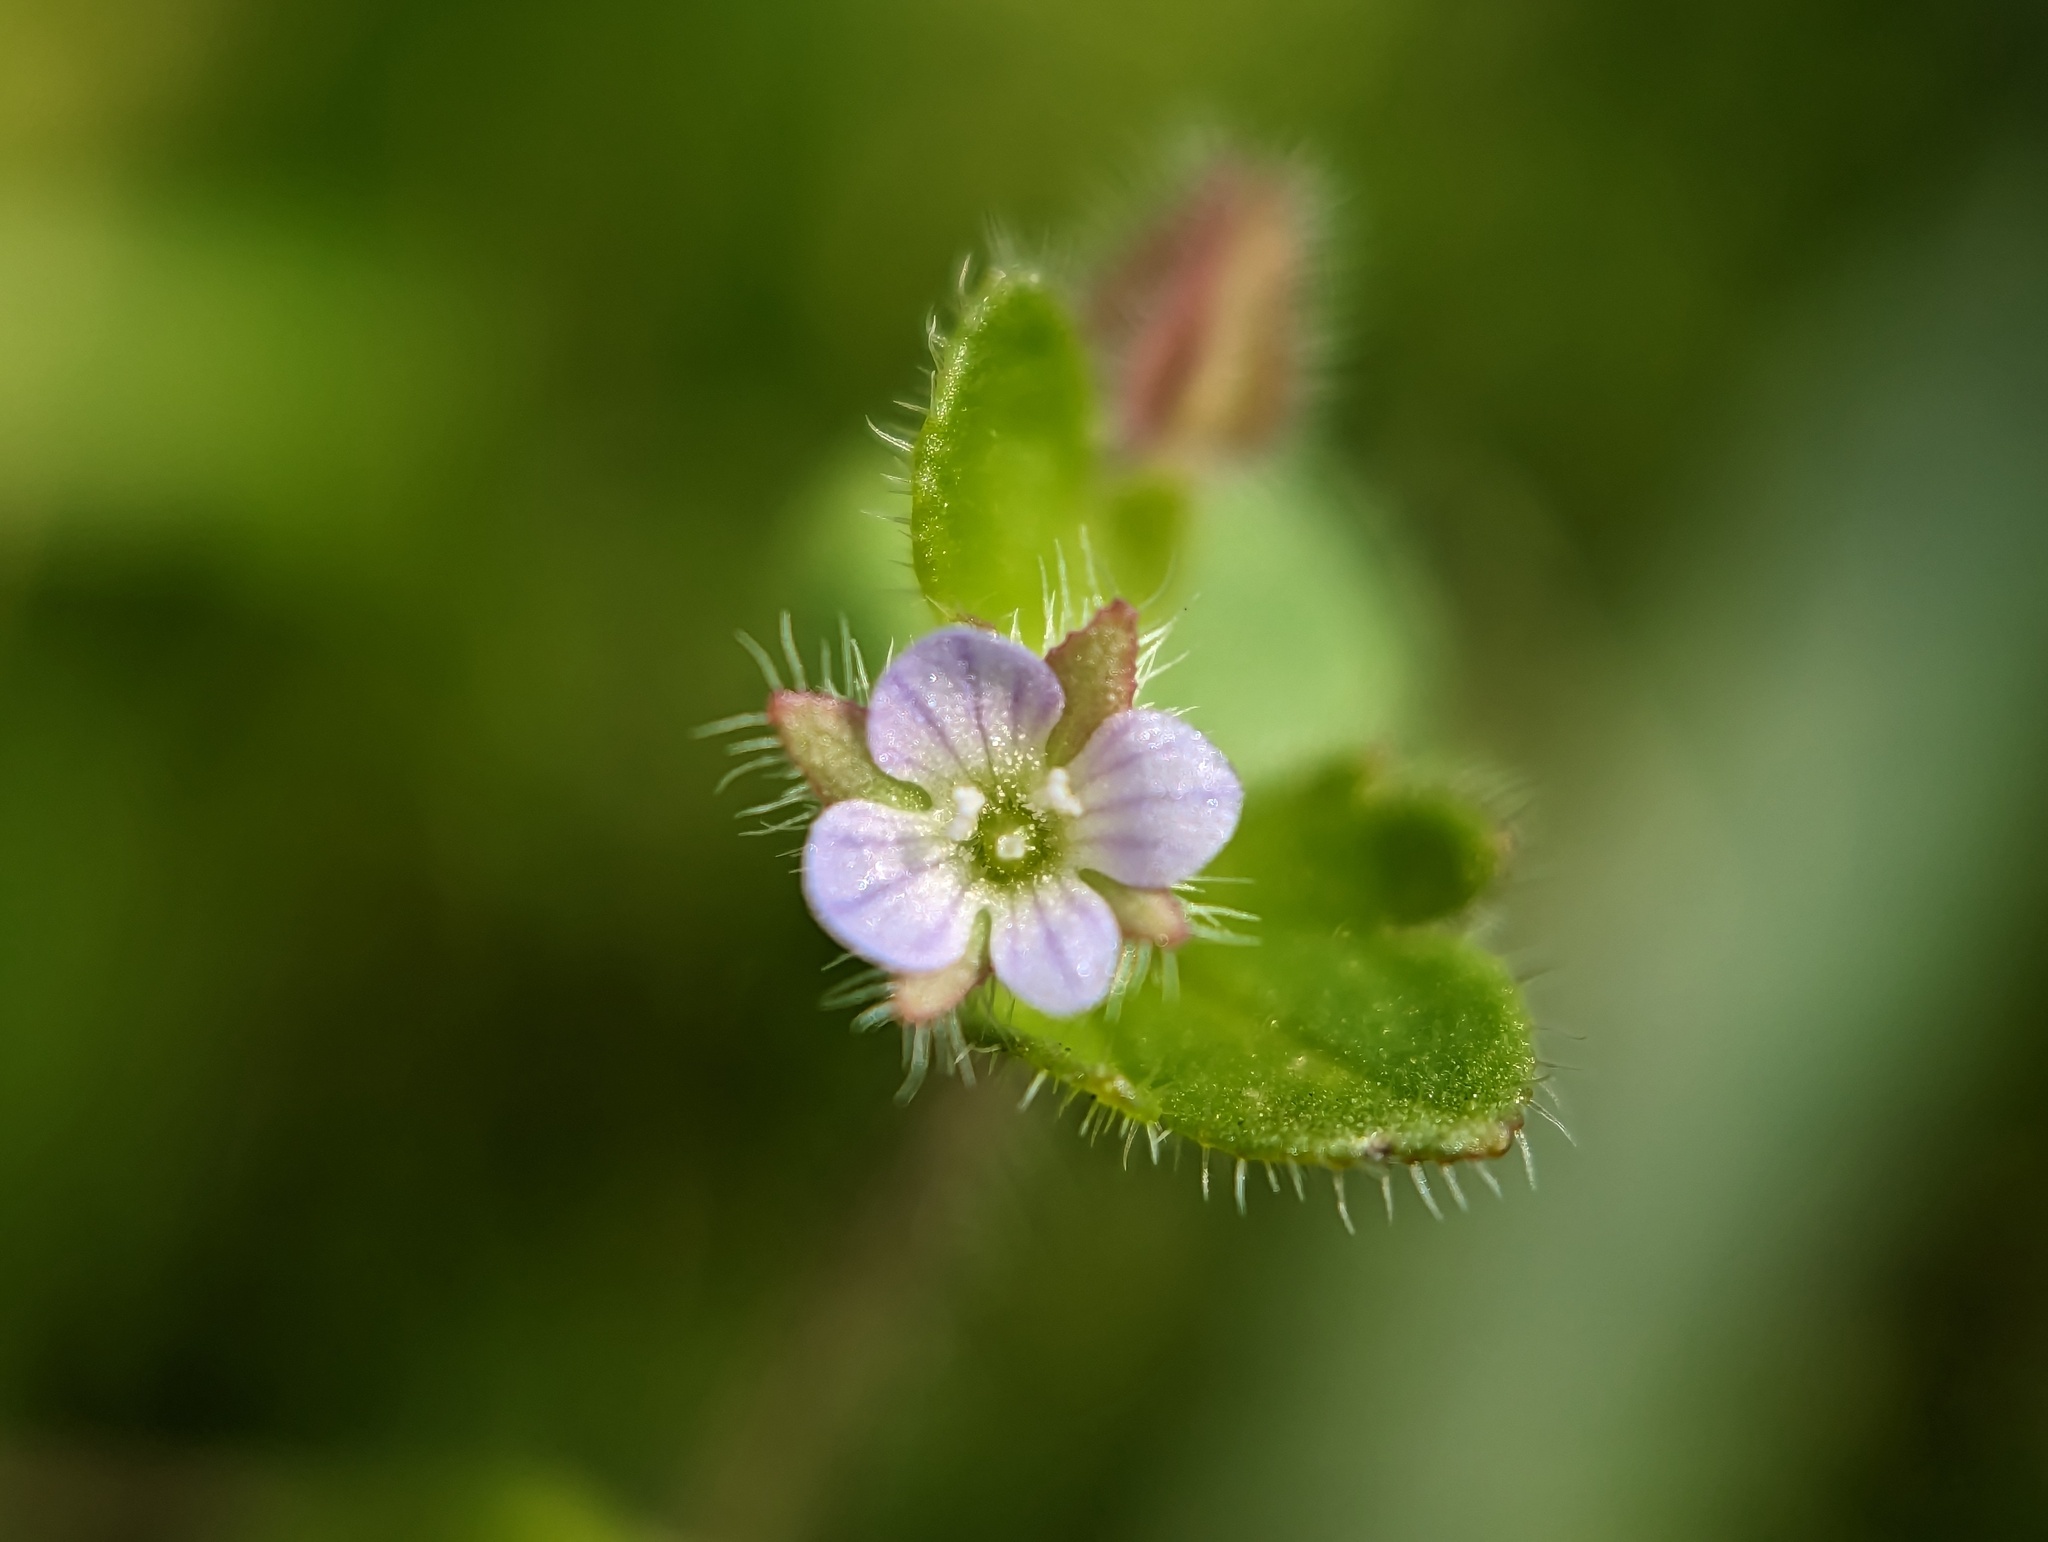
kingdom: Plantae
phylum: Tracheophyta
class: Magnoliopsida
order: Lamiales
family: Plantaginaceae
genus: Veronica
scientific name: Veronica sublobata
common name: False ivy-leaved speedwell
